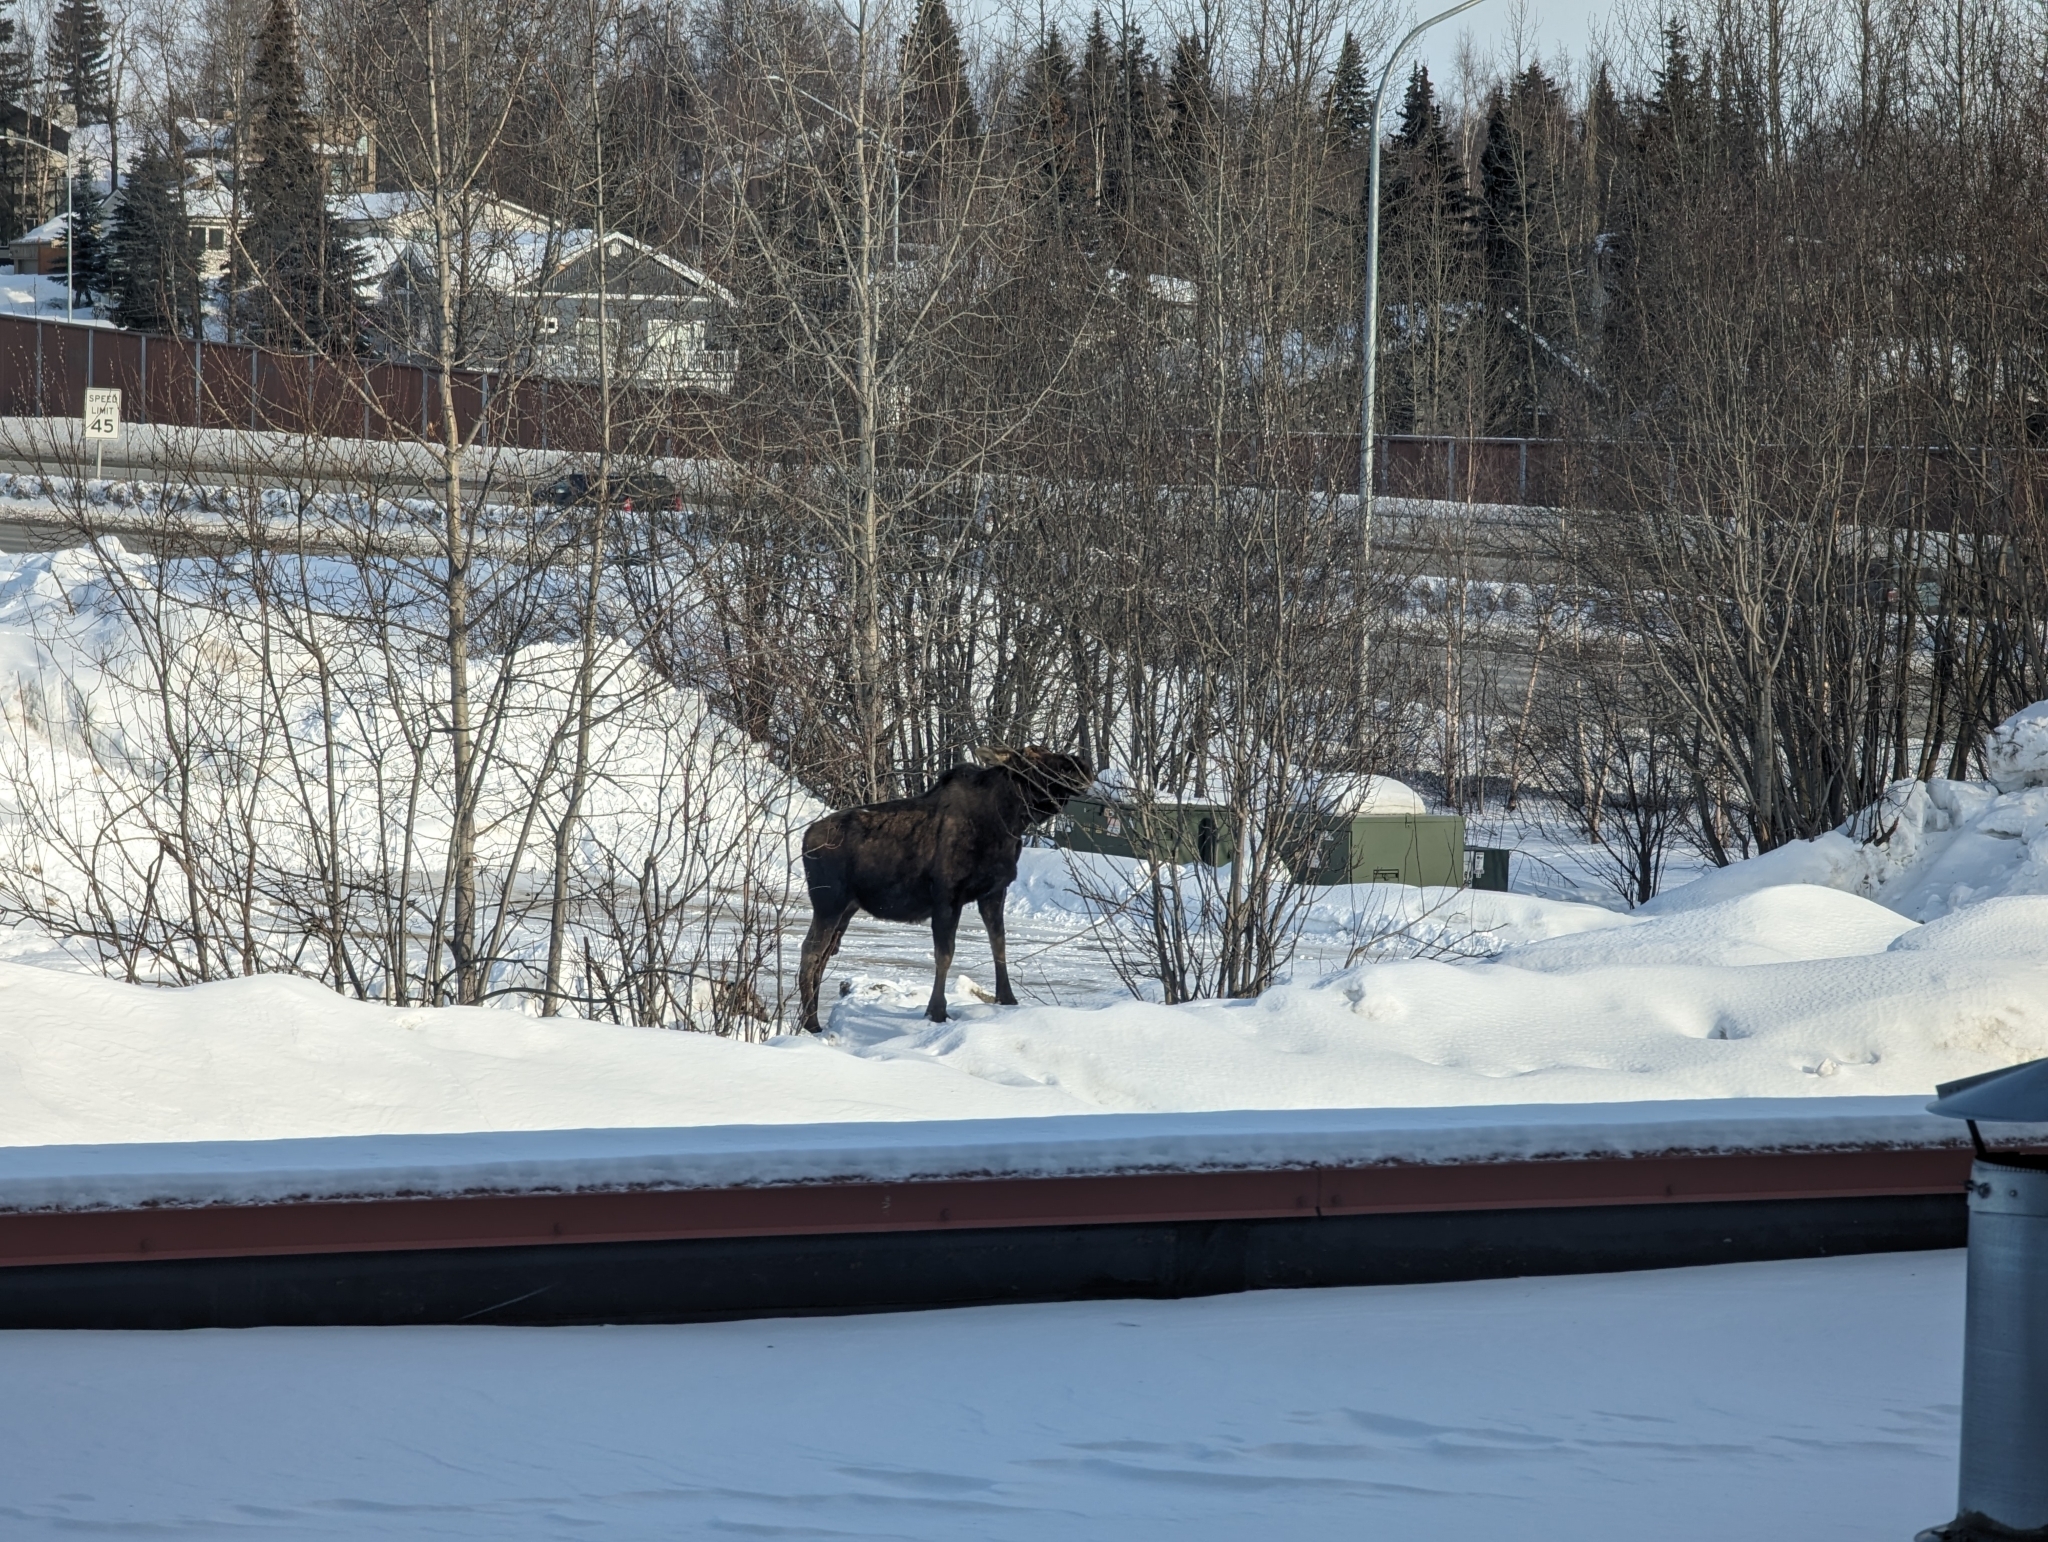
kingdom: Animalia
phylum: Chordata
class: Mammalia
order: Artiodactyla
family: Cervidae
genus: Alces
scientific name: Alces alces
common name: Moose
